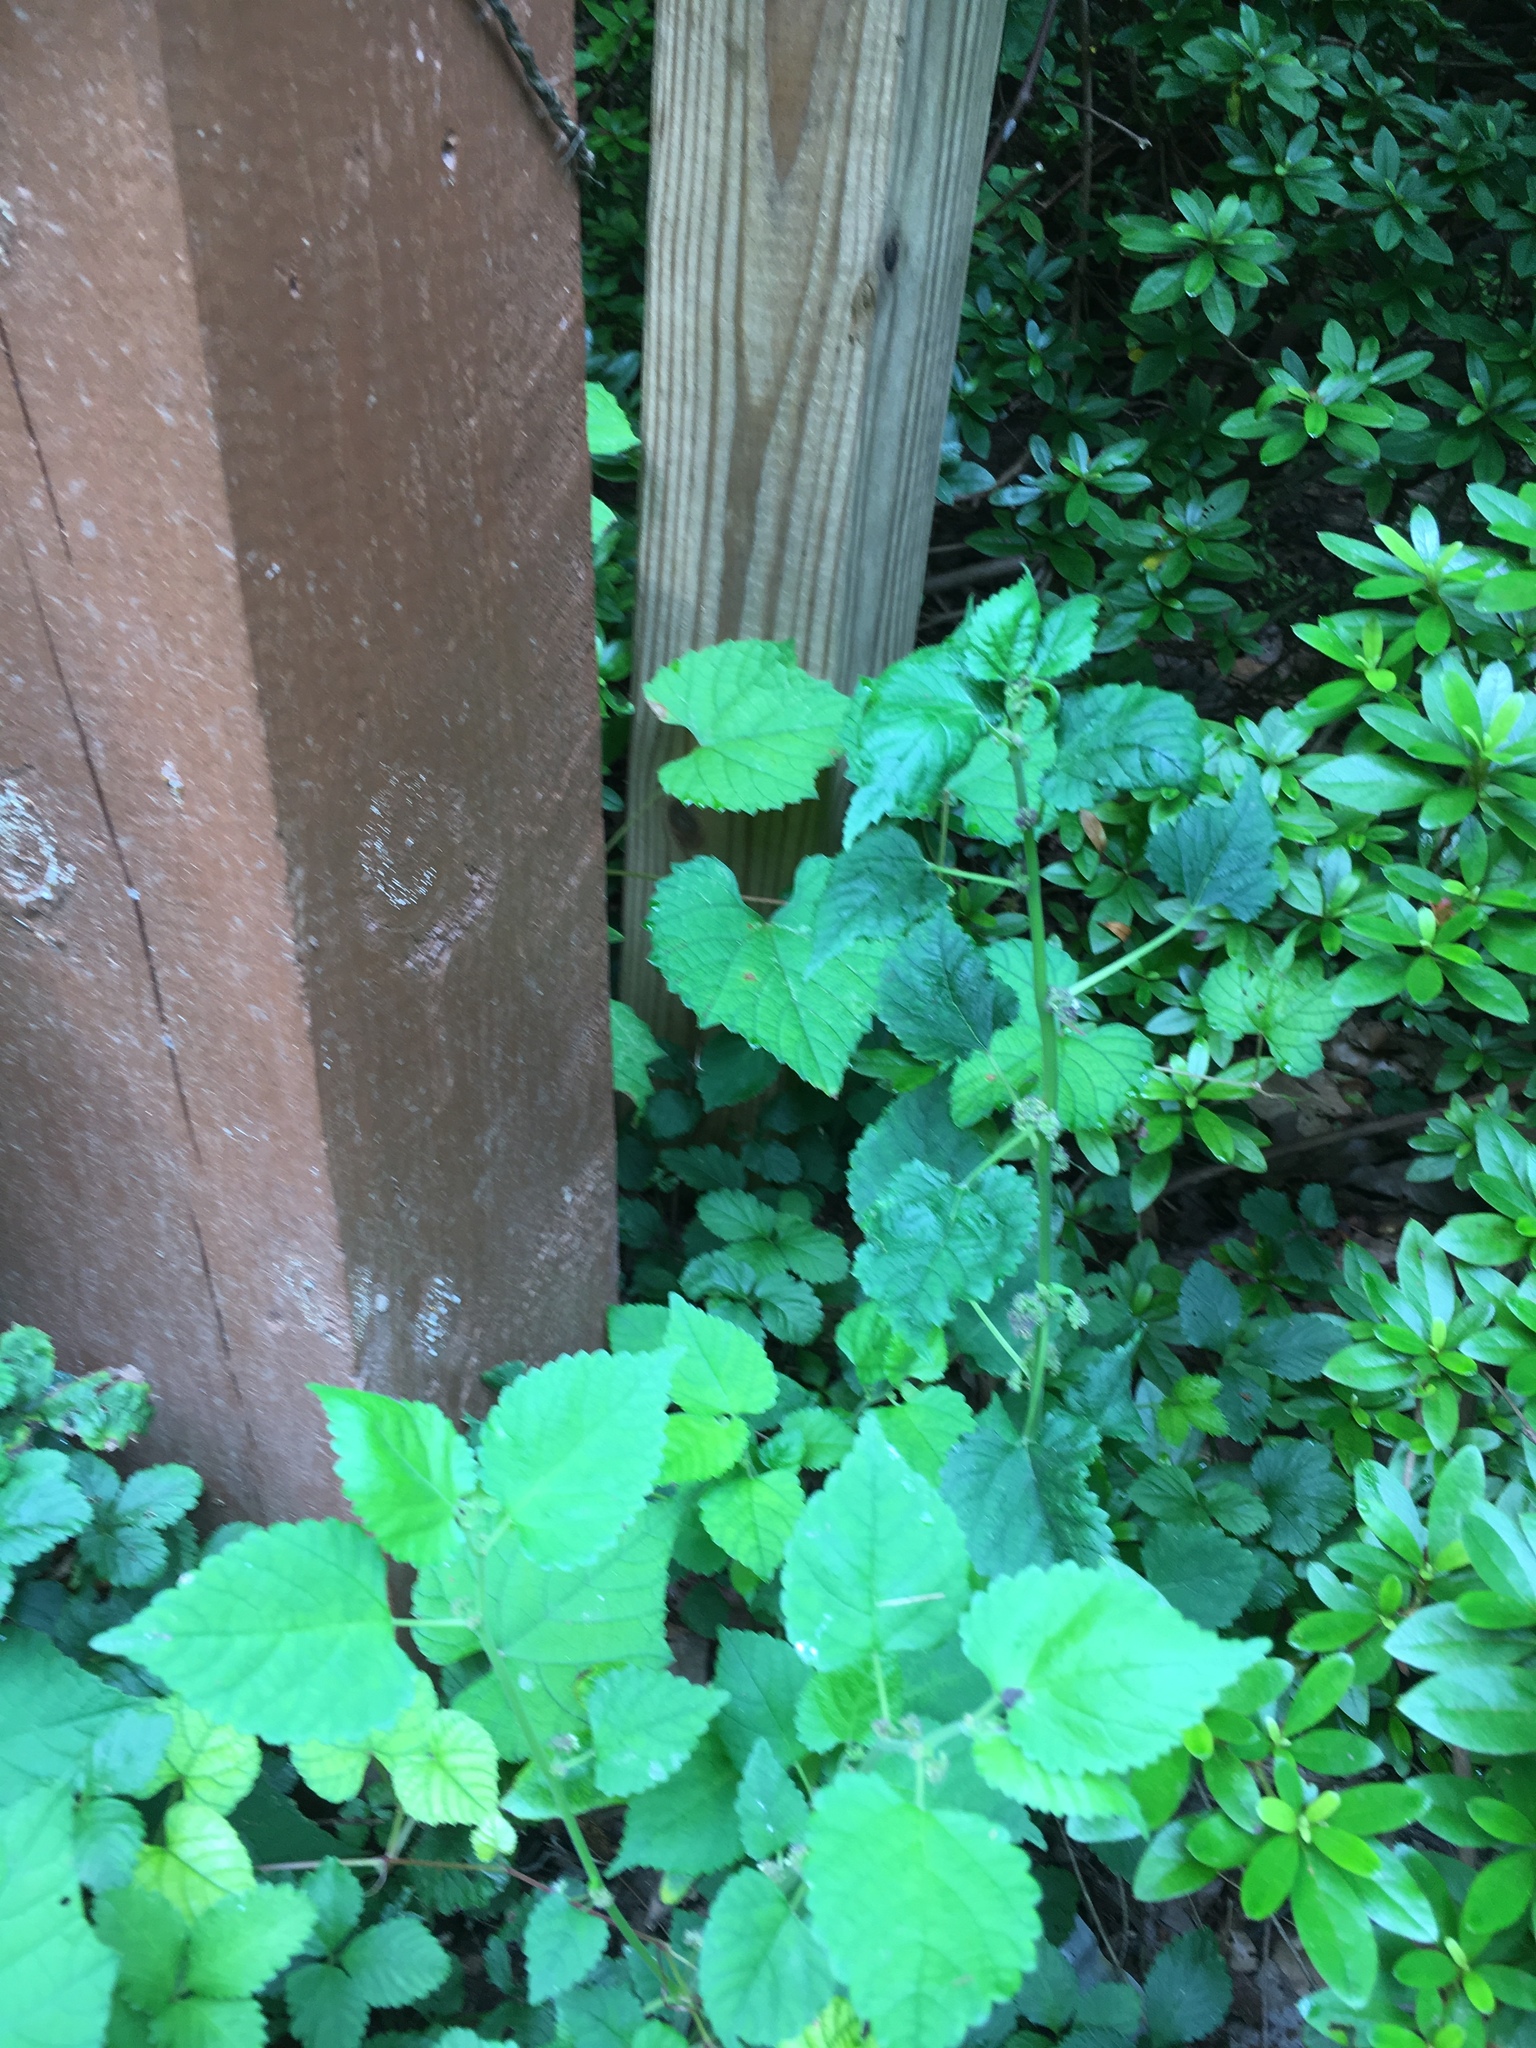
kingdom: Plantae
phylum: Tracheophyta
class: Magnoliopsida
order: Rosales
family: Moraceae
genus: Fatoua
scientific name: Fatoua villosa
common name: Hairy crabweed
